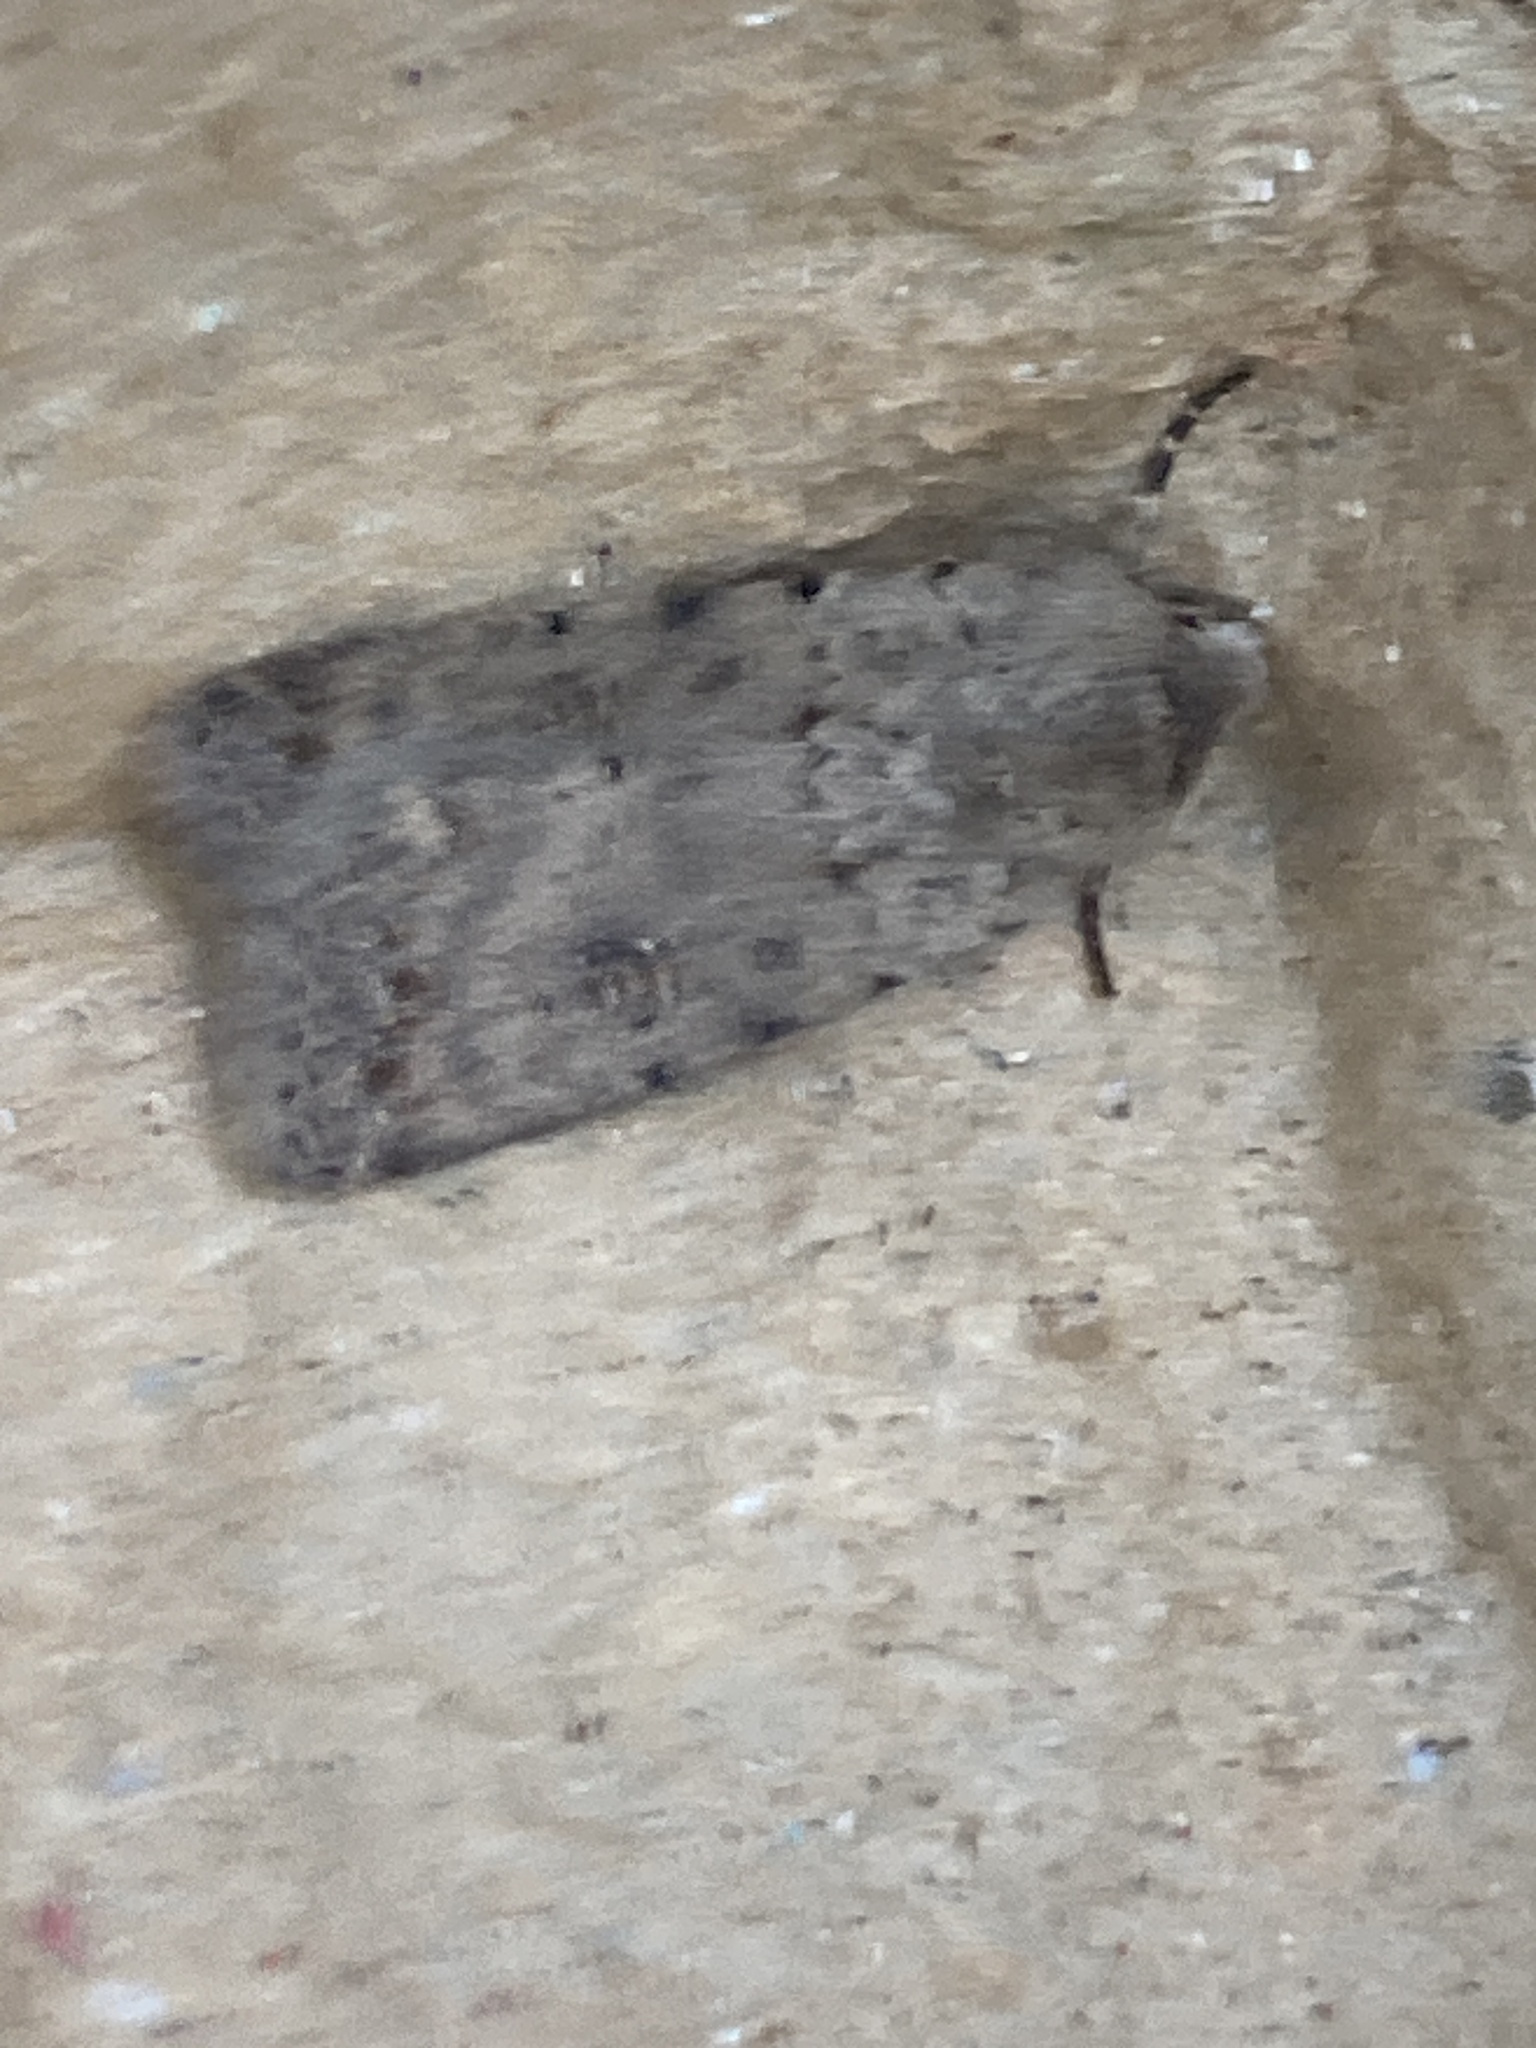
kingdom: Animalia
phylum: Arthropoda
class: Insecta
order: Lepidoptera
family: Noctuidae
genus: Caradrina
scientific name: Caradrina clavipalpis
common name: Pale mottled willow
